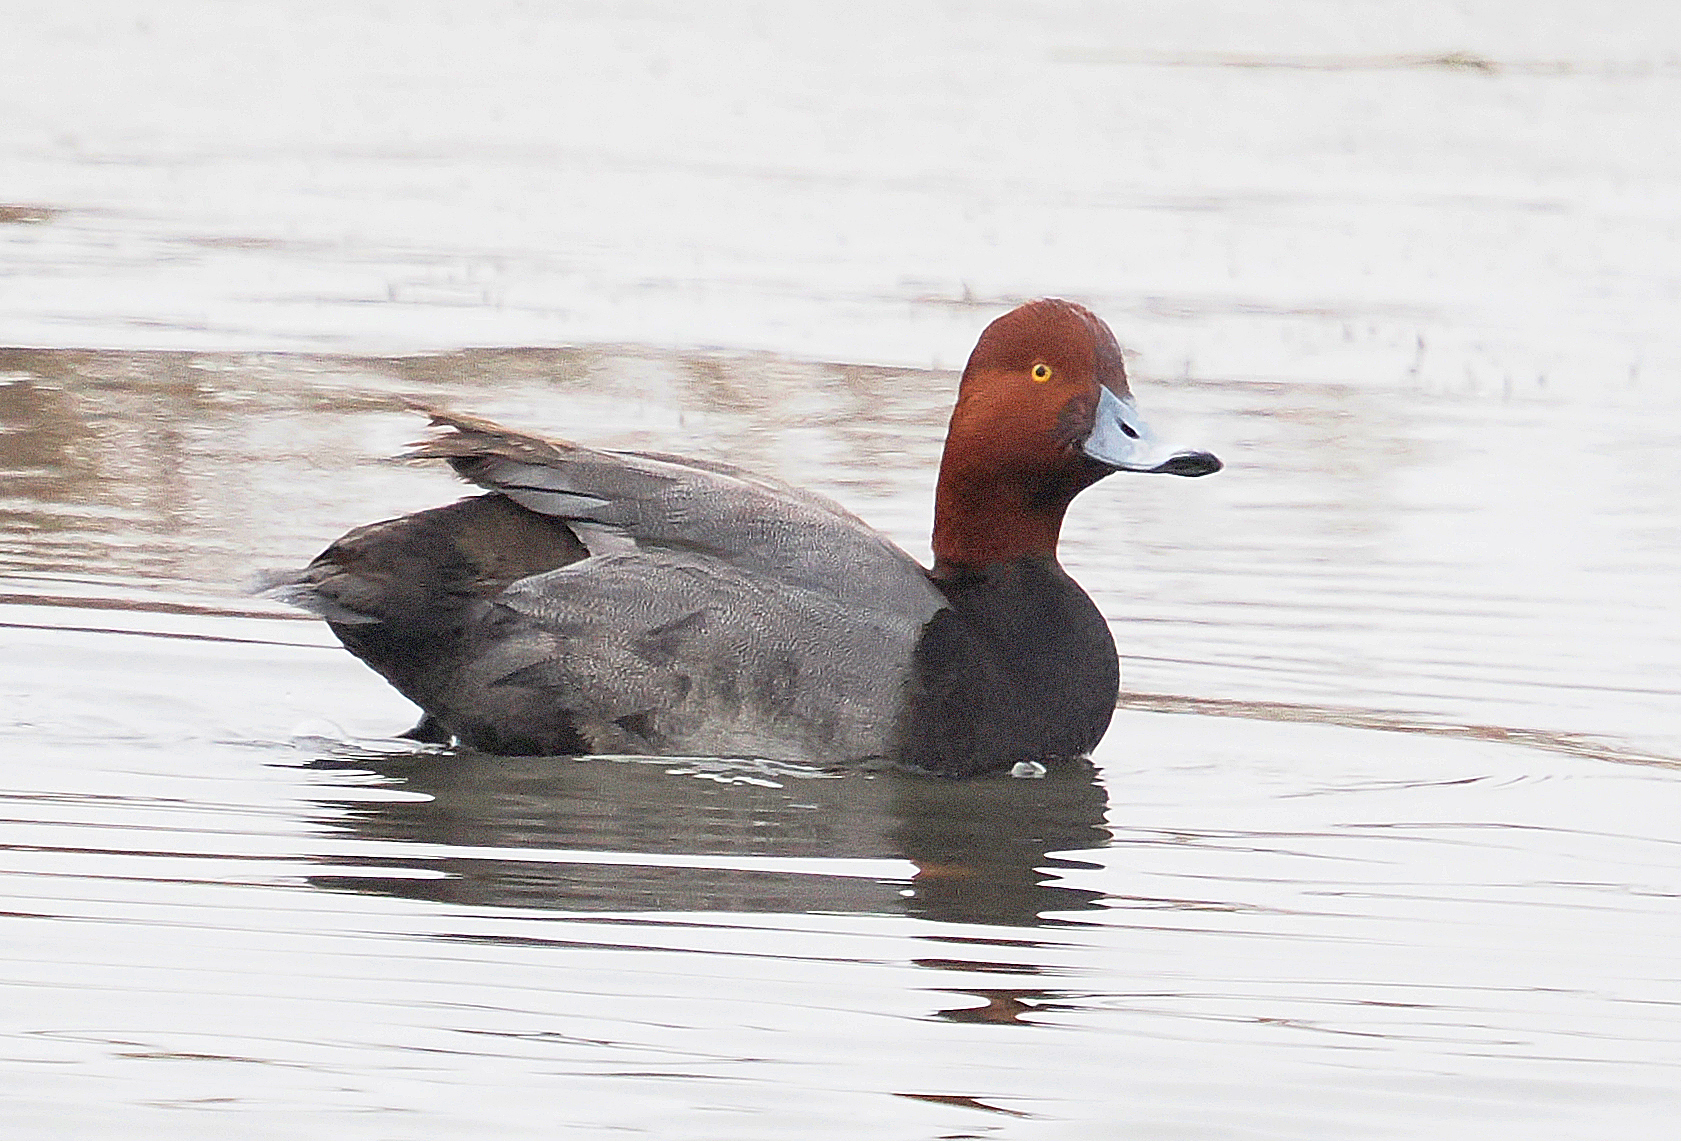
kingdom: Animalia
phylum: Chordata
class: Aves
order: Anseriformes
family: Anatidae
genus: Aythya
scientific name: Aythya americana
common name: Redhead
